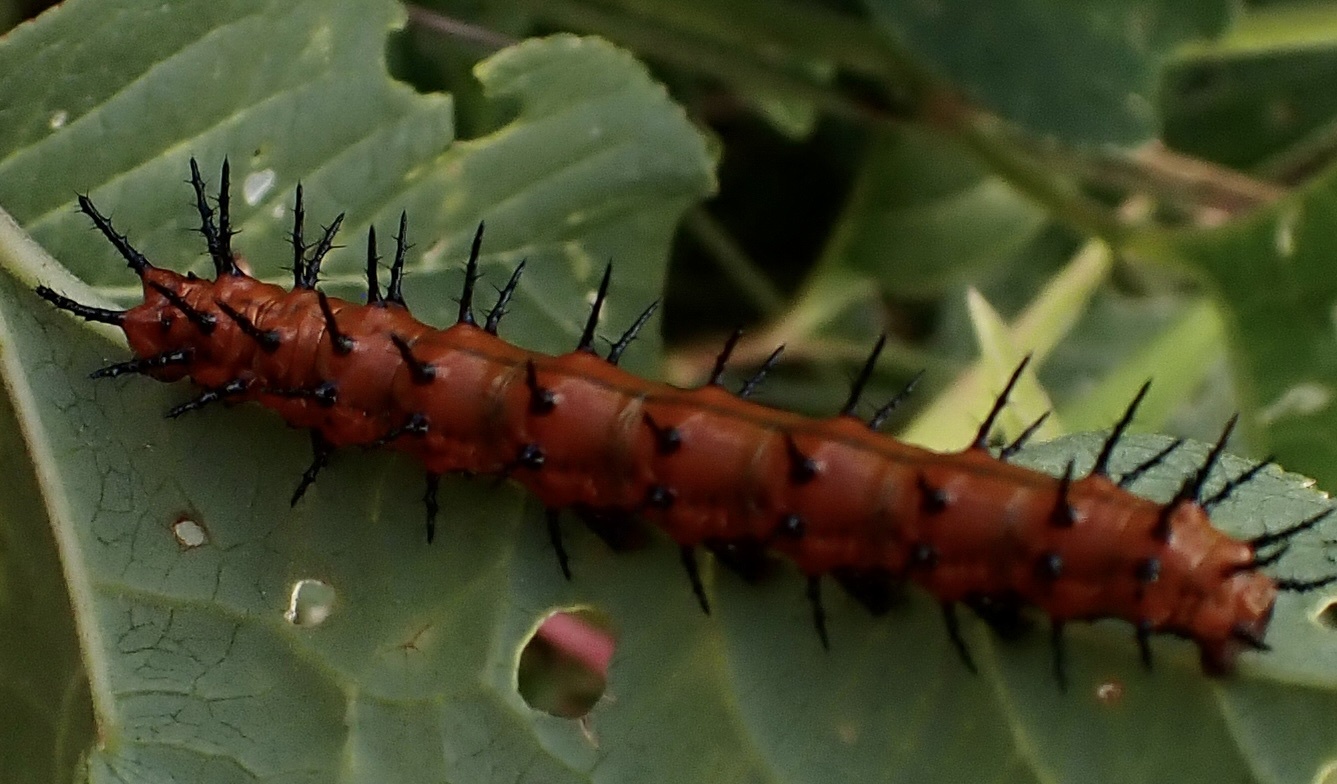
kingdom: Animalia
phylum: Arthropoda
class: Insecta
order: Lepidoptera
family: Nymphalidae
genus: Dione
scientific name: Dione vanillae
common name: Gulf fritillary
